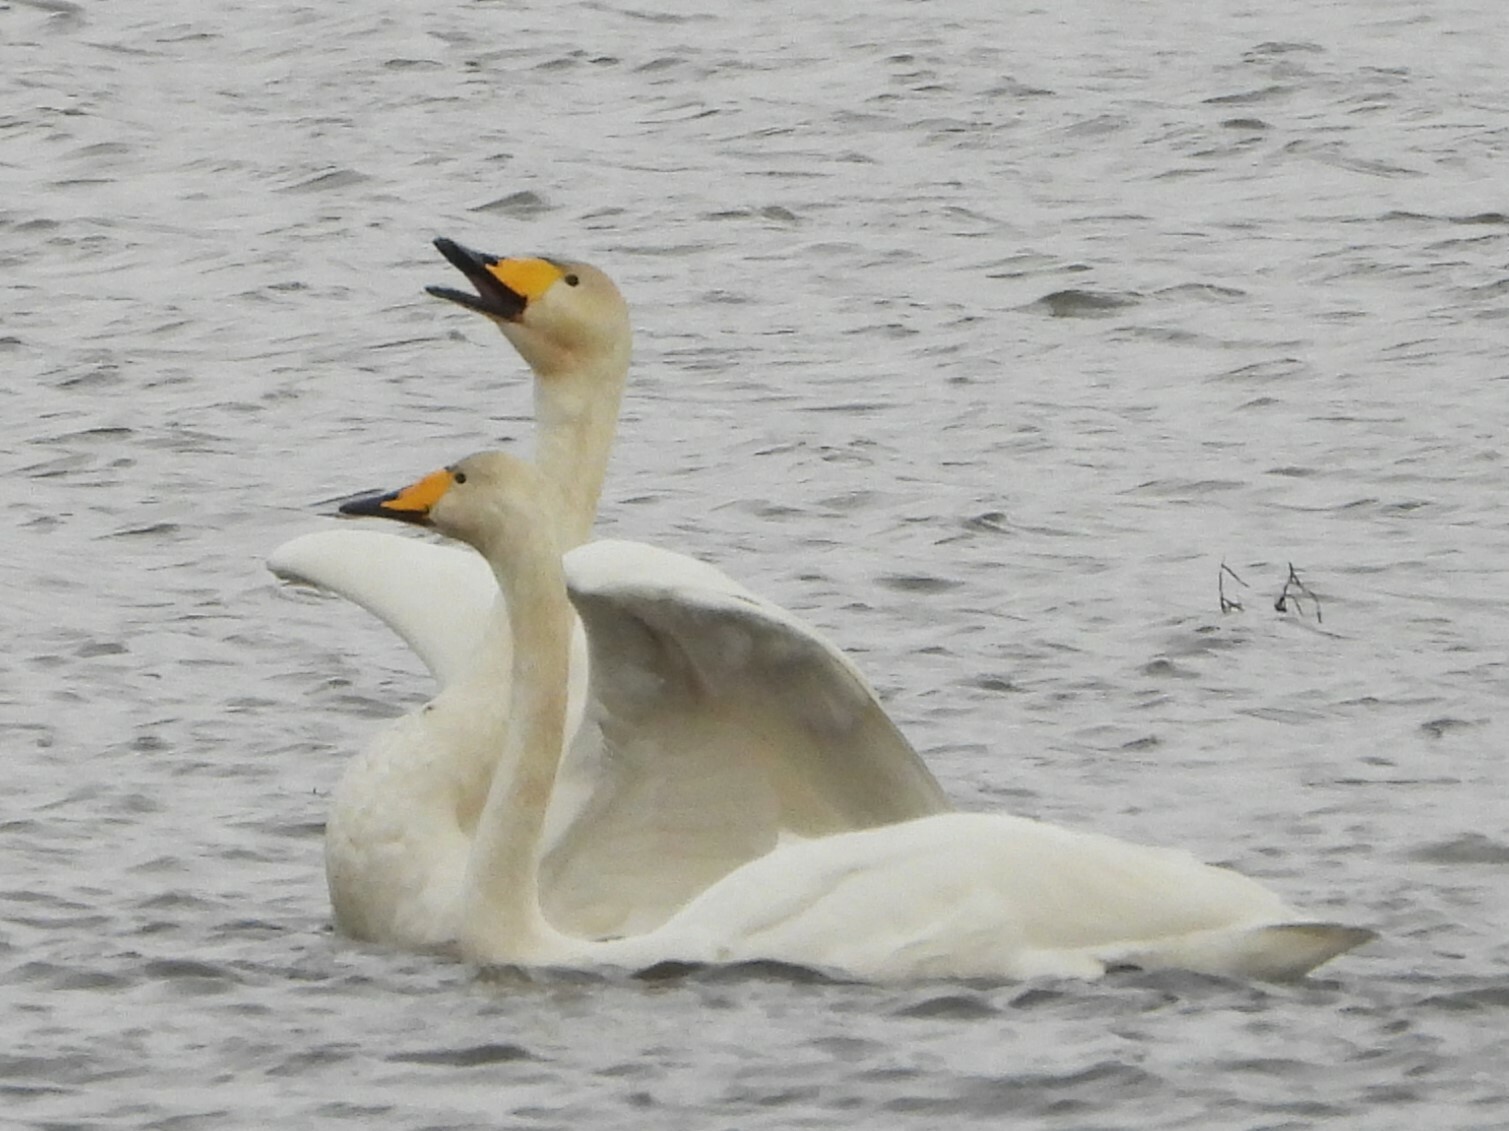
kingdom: Animalia
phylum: Chordata
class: Aves
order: Anseriformes
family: Anatidae
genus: Cygnus
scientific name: Cygnus cygnus
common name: Whooper swan
